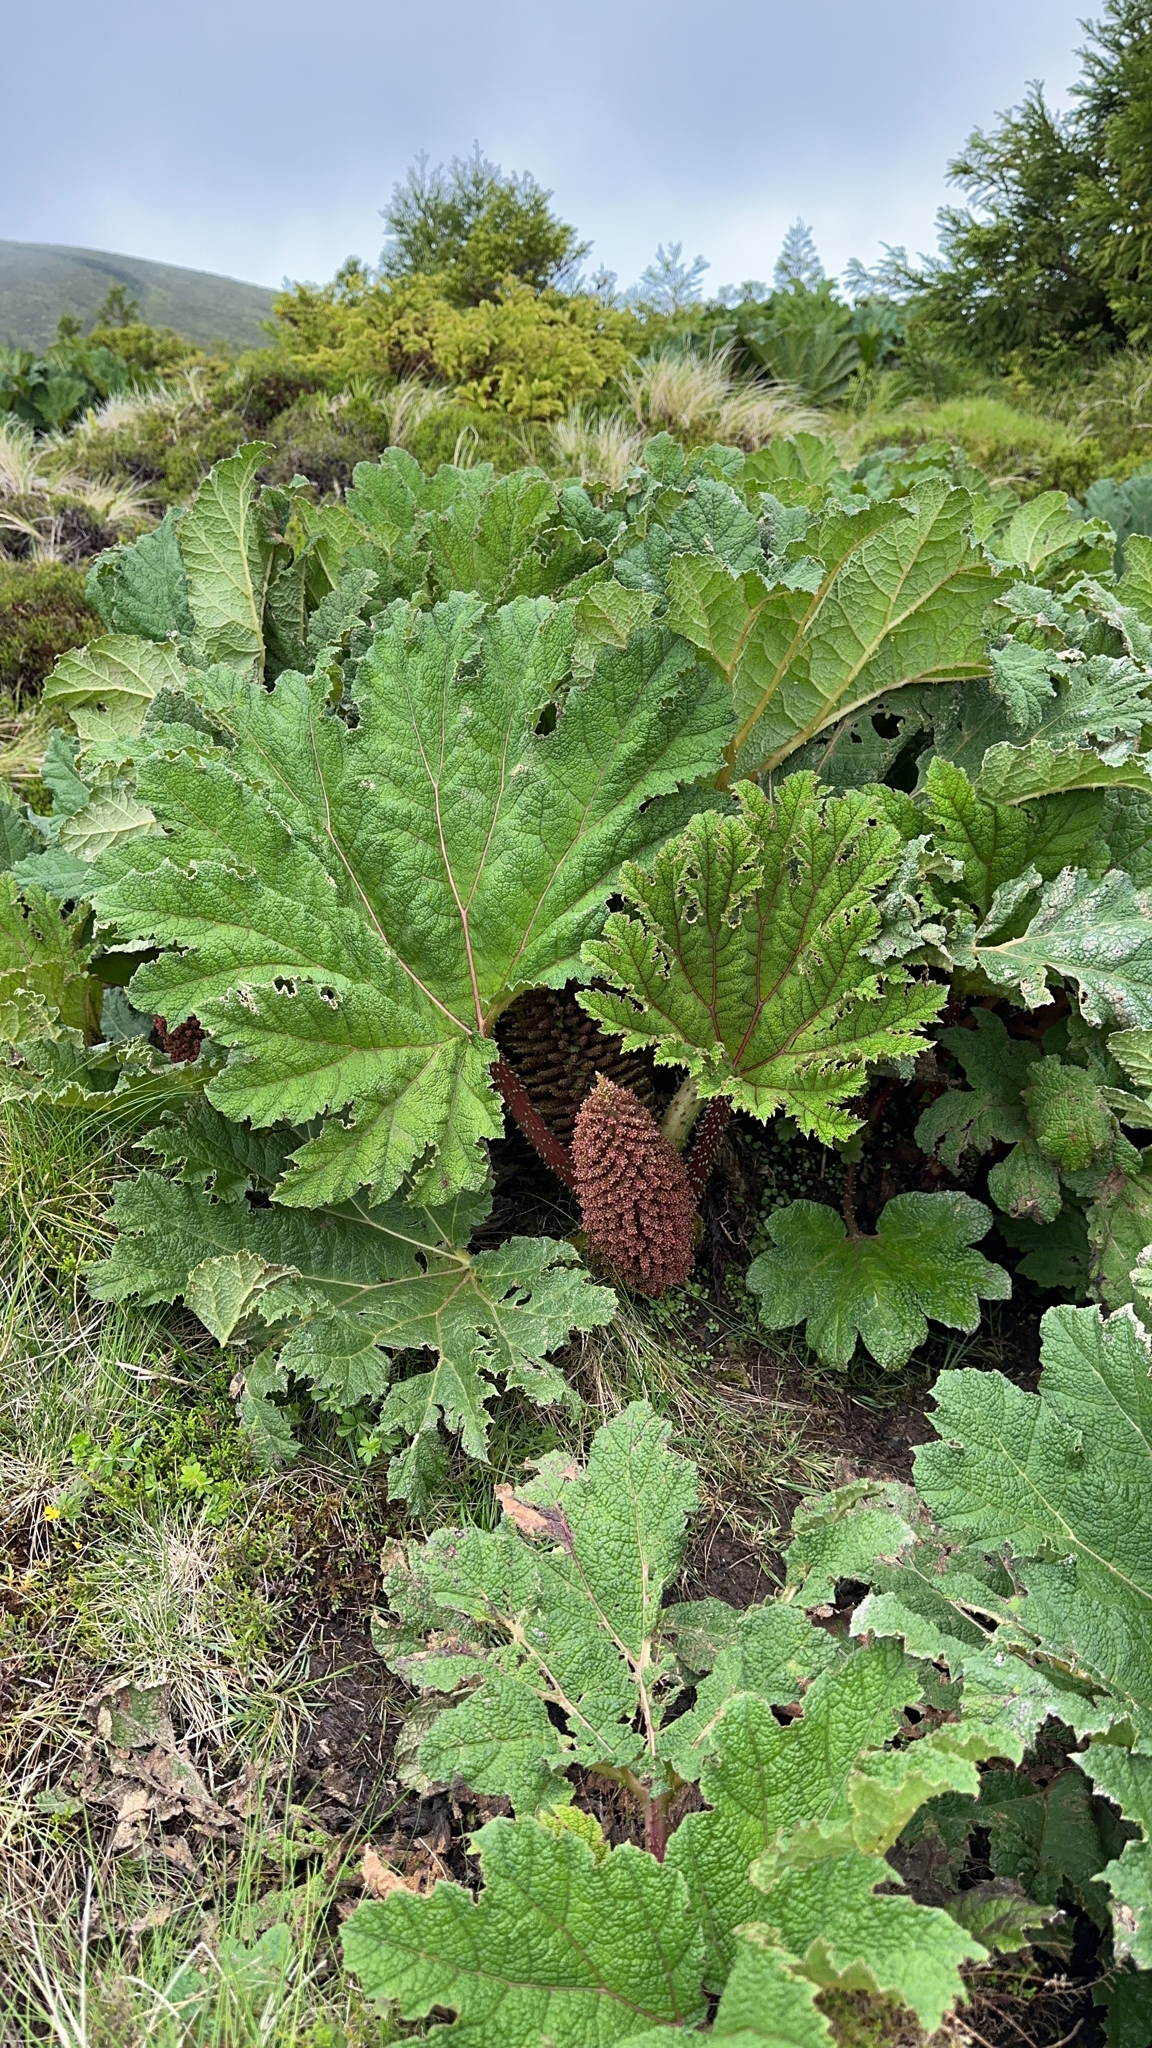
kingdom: Plantae
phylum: Tracheophyta
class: Magnoliopsida
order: Gunnerales
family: Gunneraceae
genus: Gunnera
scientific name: Gunnera tinctoria
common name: Giant-rhubarb
